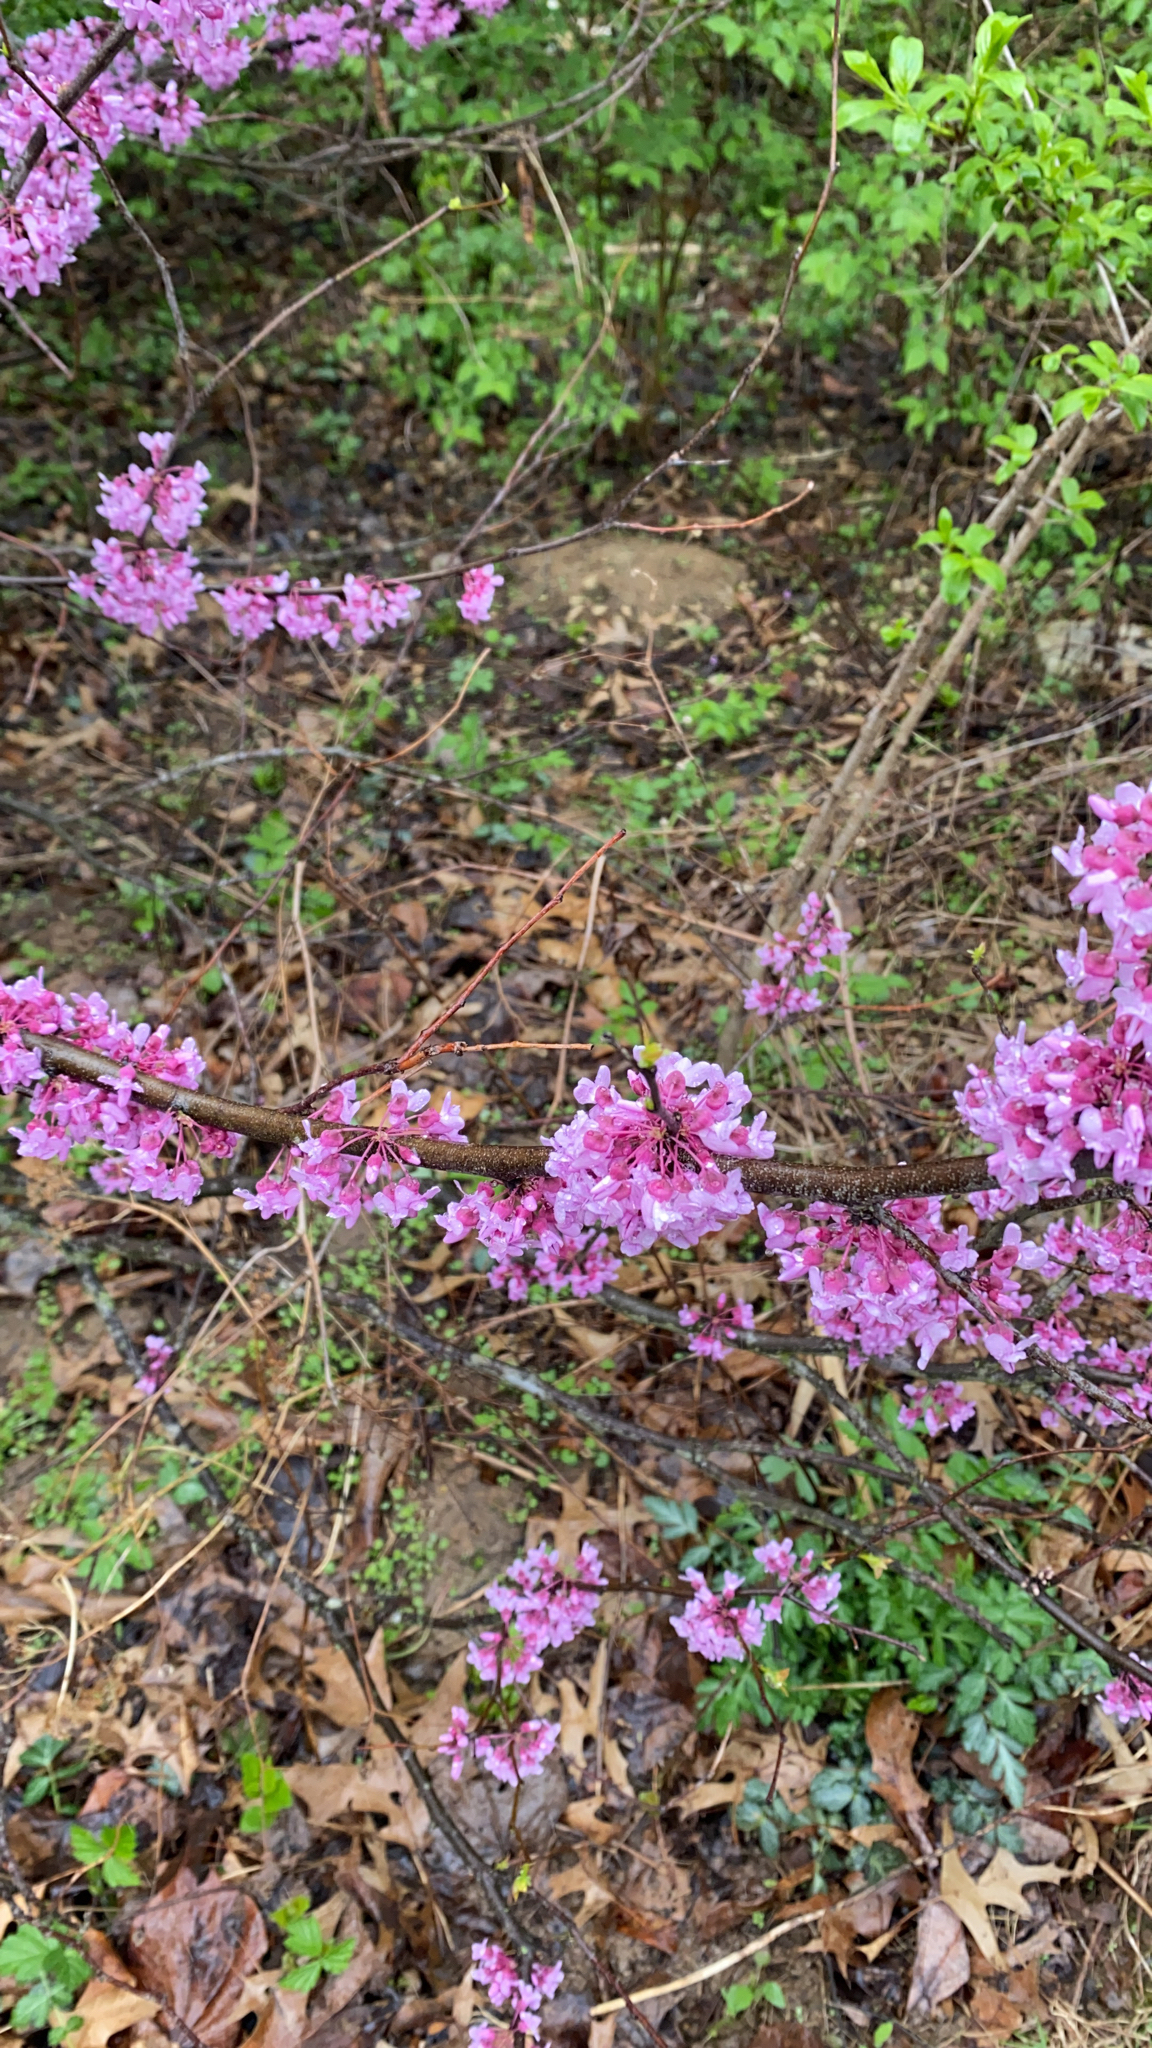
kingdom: Plantae
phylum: Tracheophyta
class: Magnoliopsida
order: Fabales
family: Fabaceae
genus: Cercis
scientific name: Cercis canadensis
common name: Eastern redbud
